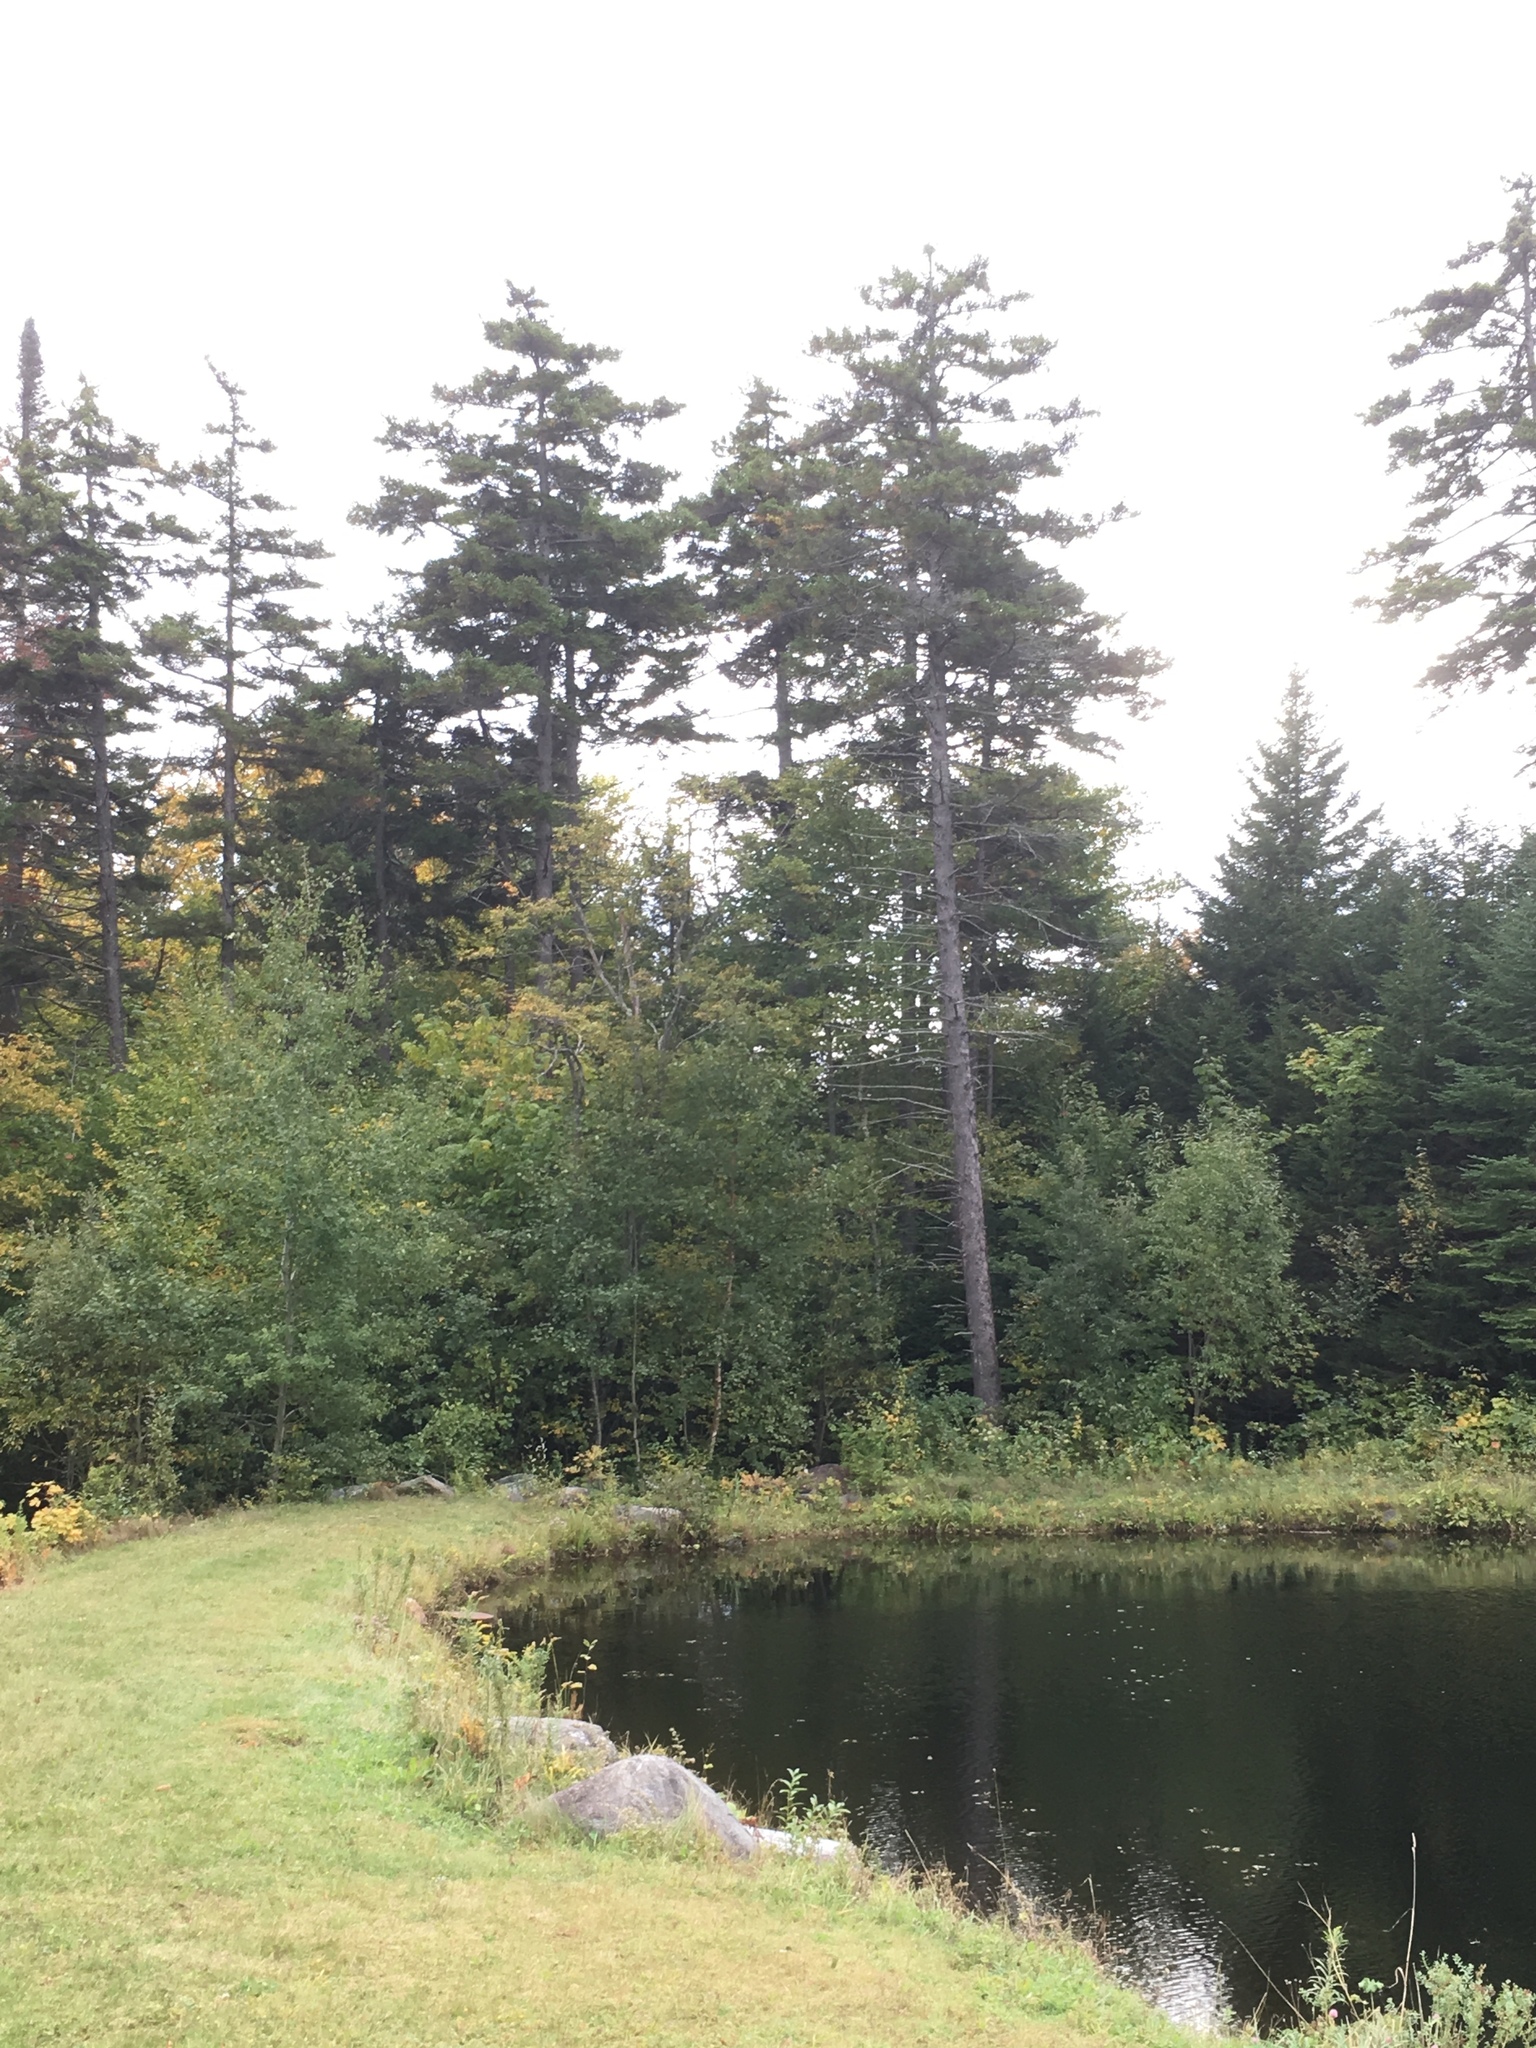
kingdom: Plantae
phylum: Tracheophyta
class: Pinopsida
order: Pinales
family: Pinaceae
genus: Picea
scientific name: Picea rubens
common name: Red spruce
